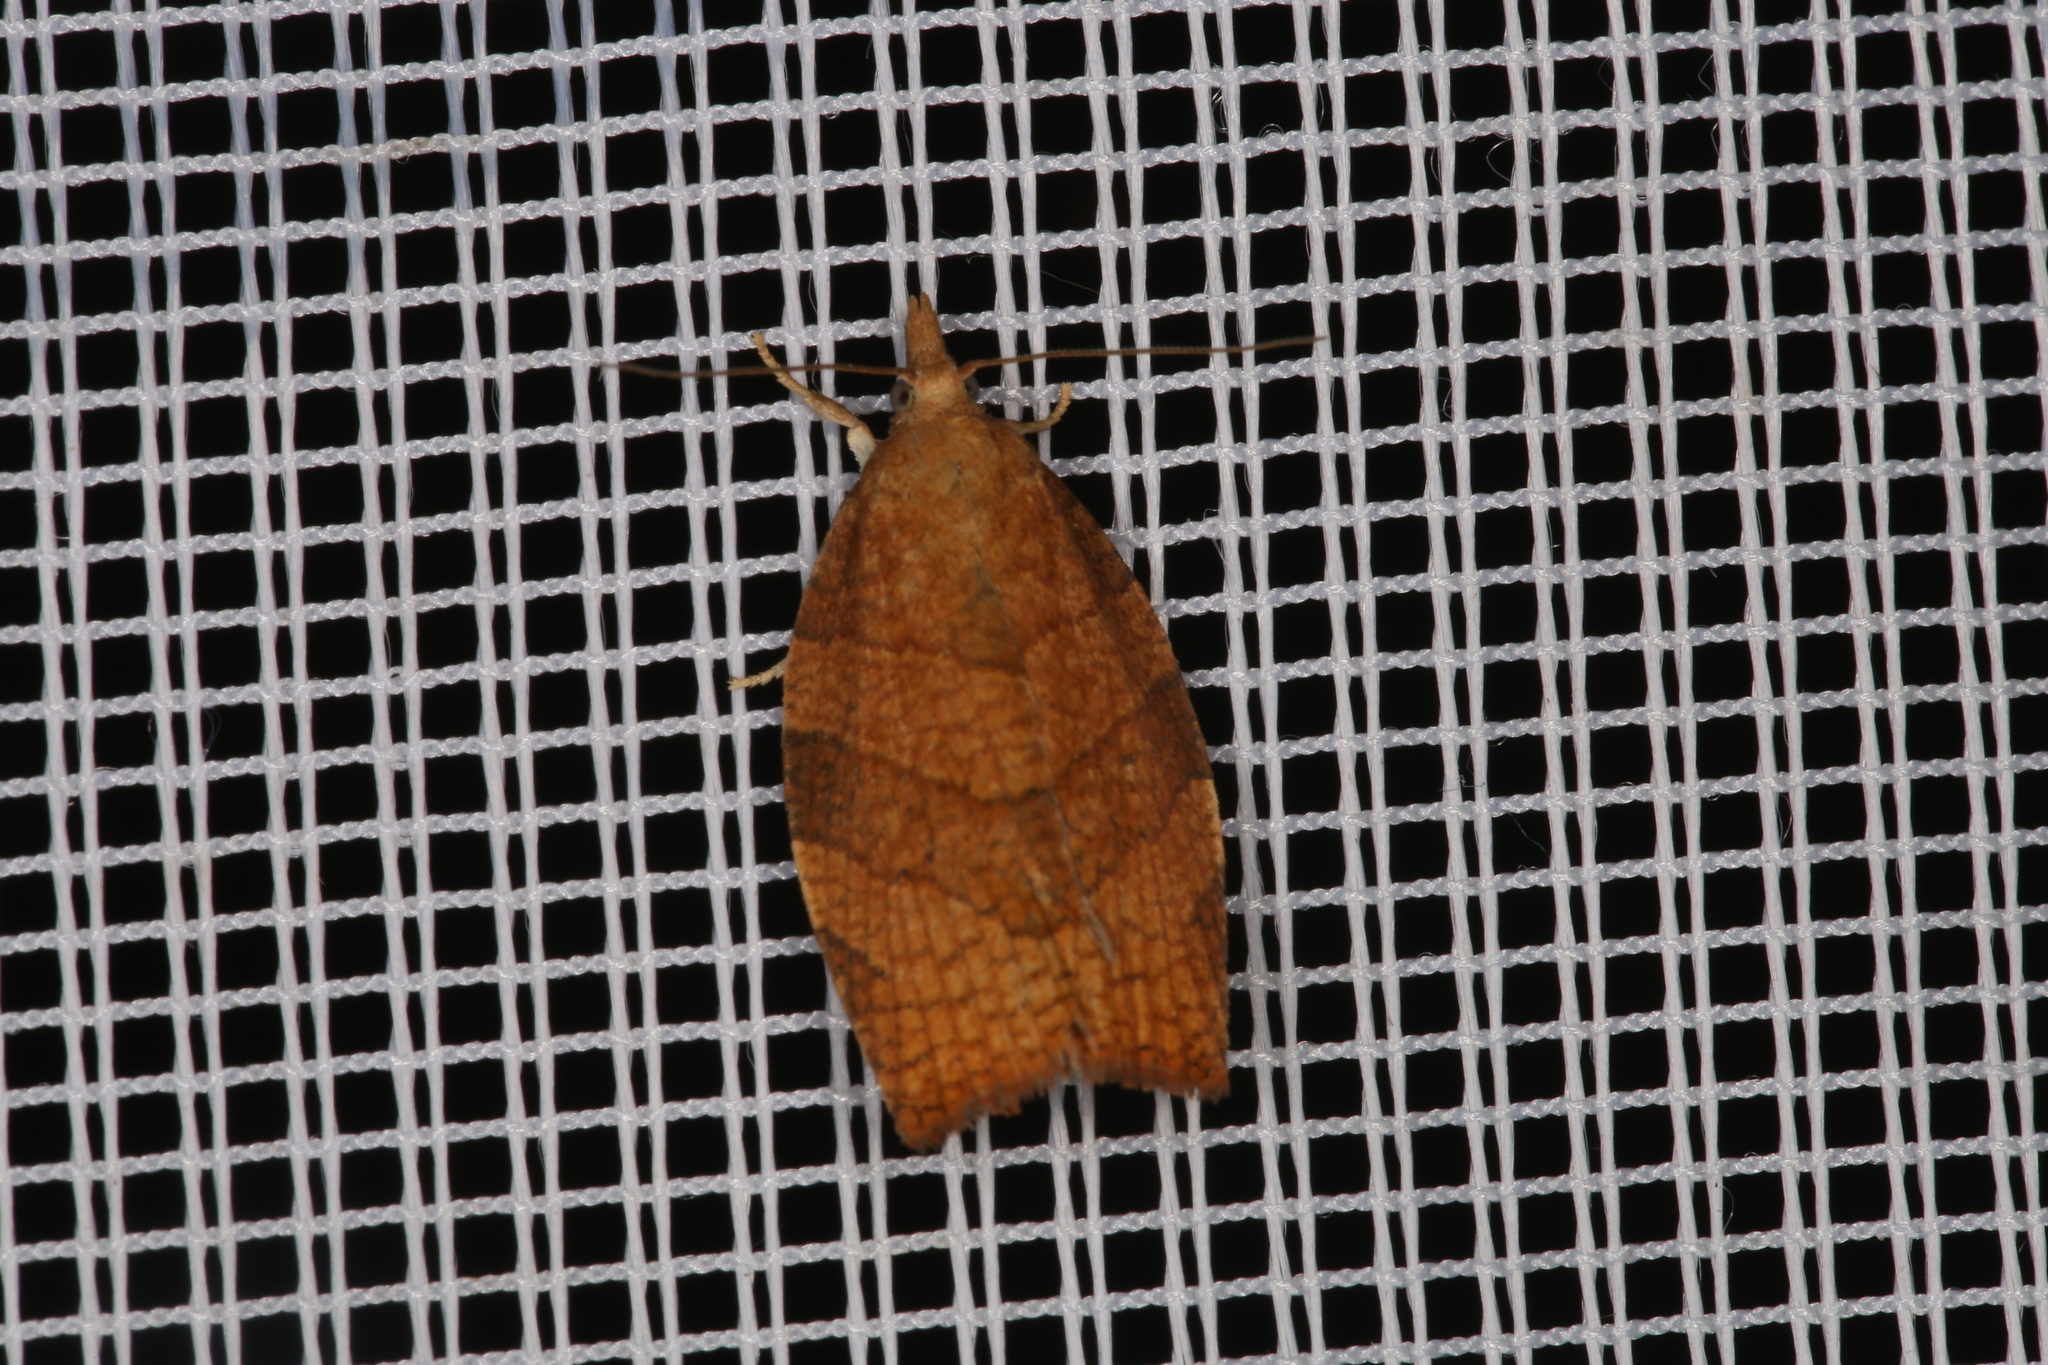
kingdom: Animalia
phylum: Arthropoda
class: Insecta
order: Lepidoptera
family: Tortricidae
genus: Pandemis
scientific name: Pandemis corylana
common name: Chequered fruit-tree tortrix
